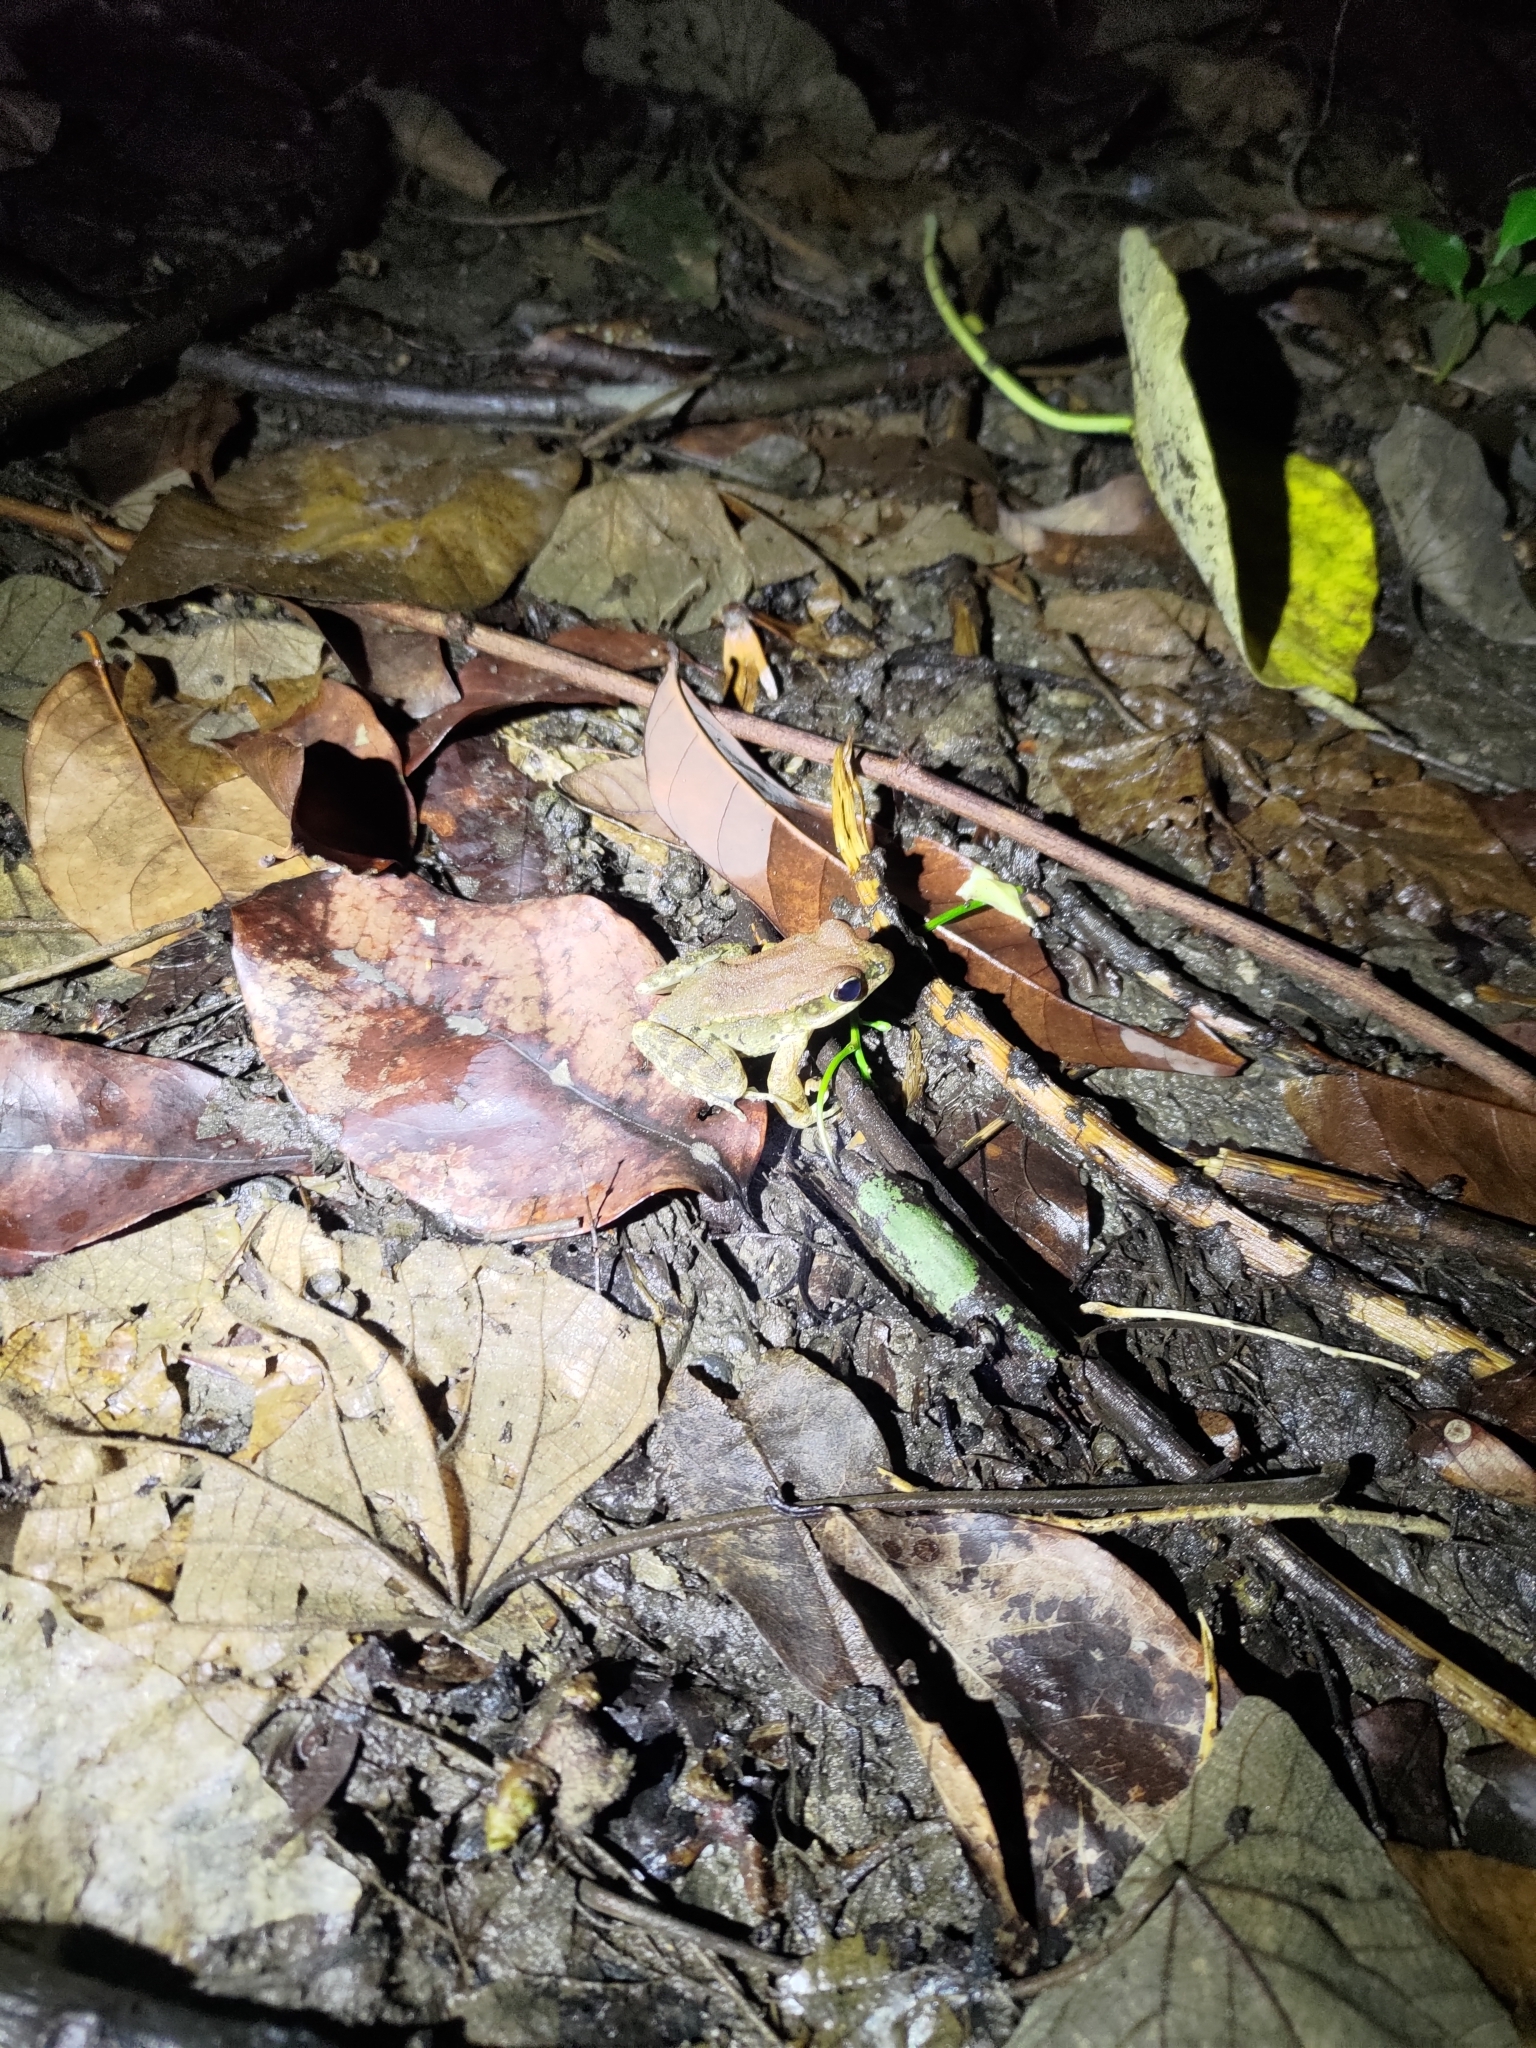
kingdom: Animalia
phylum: Chordata
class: Amphibia
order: Anura
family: Ranidae
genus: Hylarana
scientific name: Hylarana latouchii
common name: Broad-folded frog
